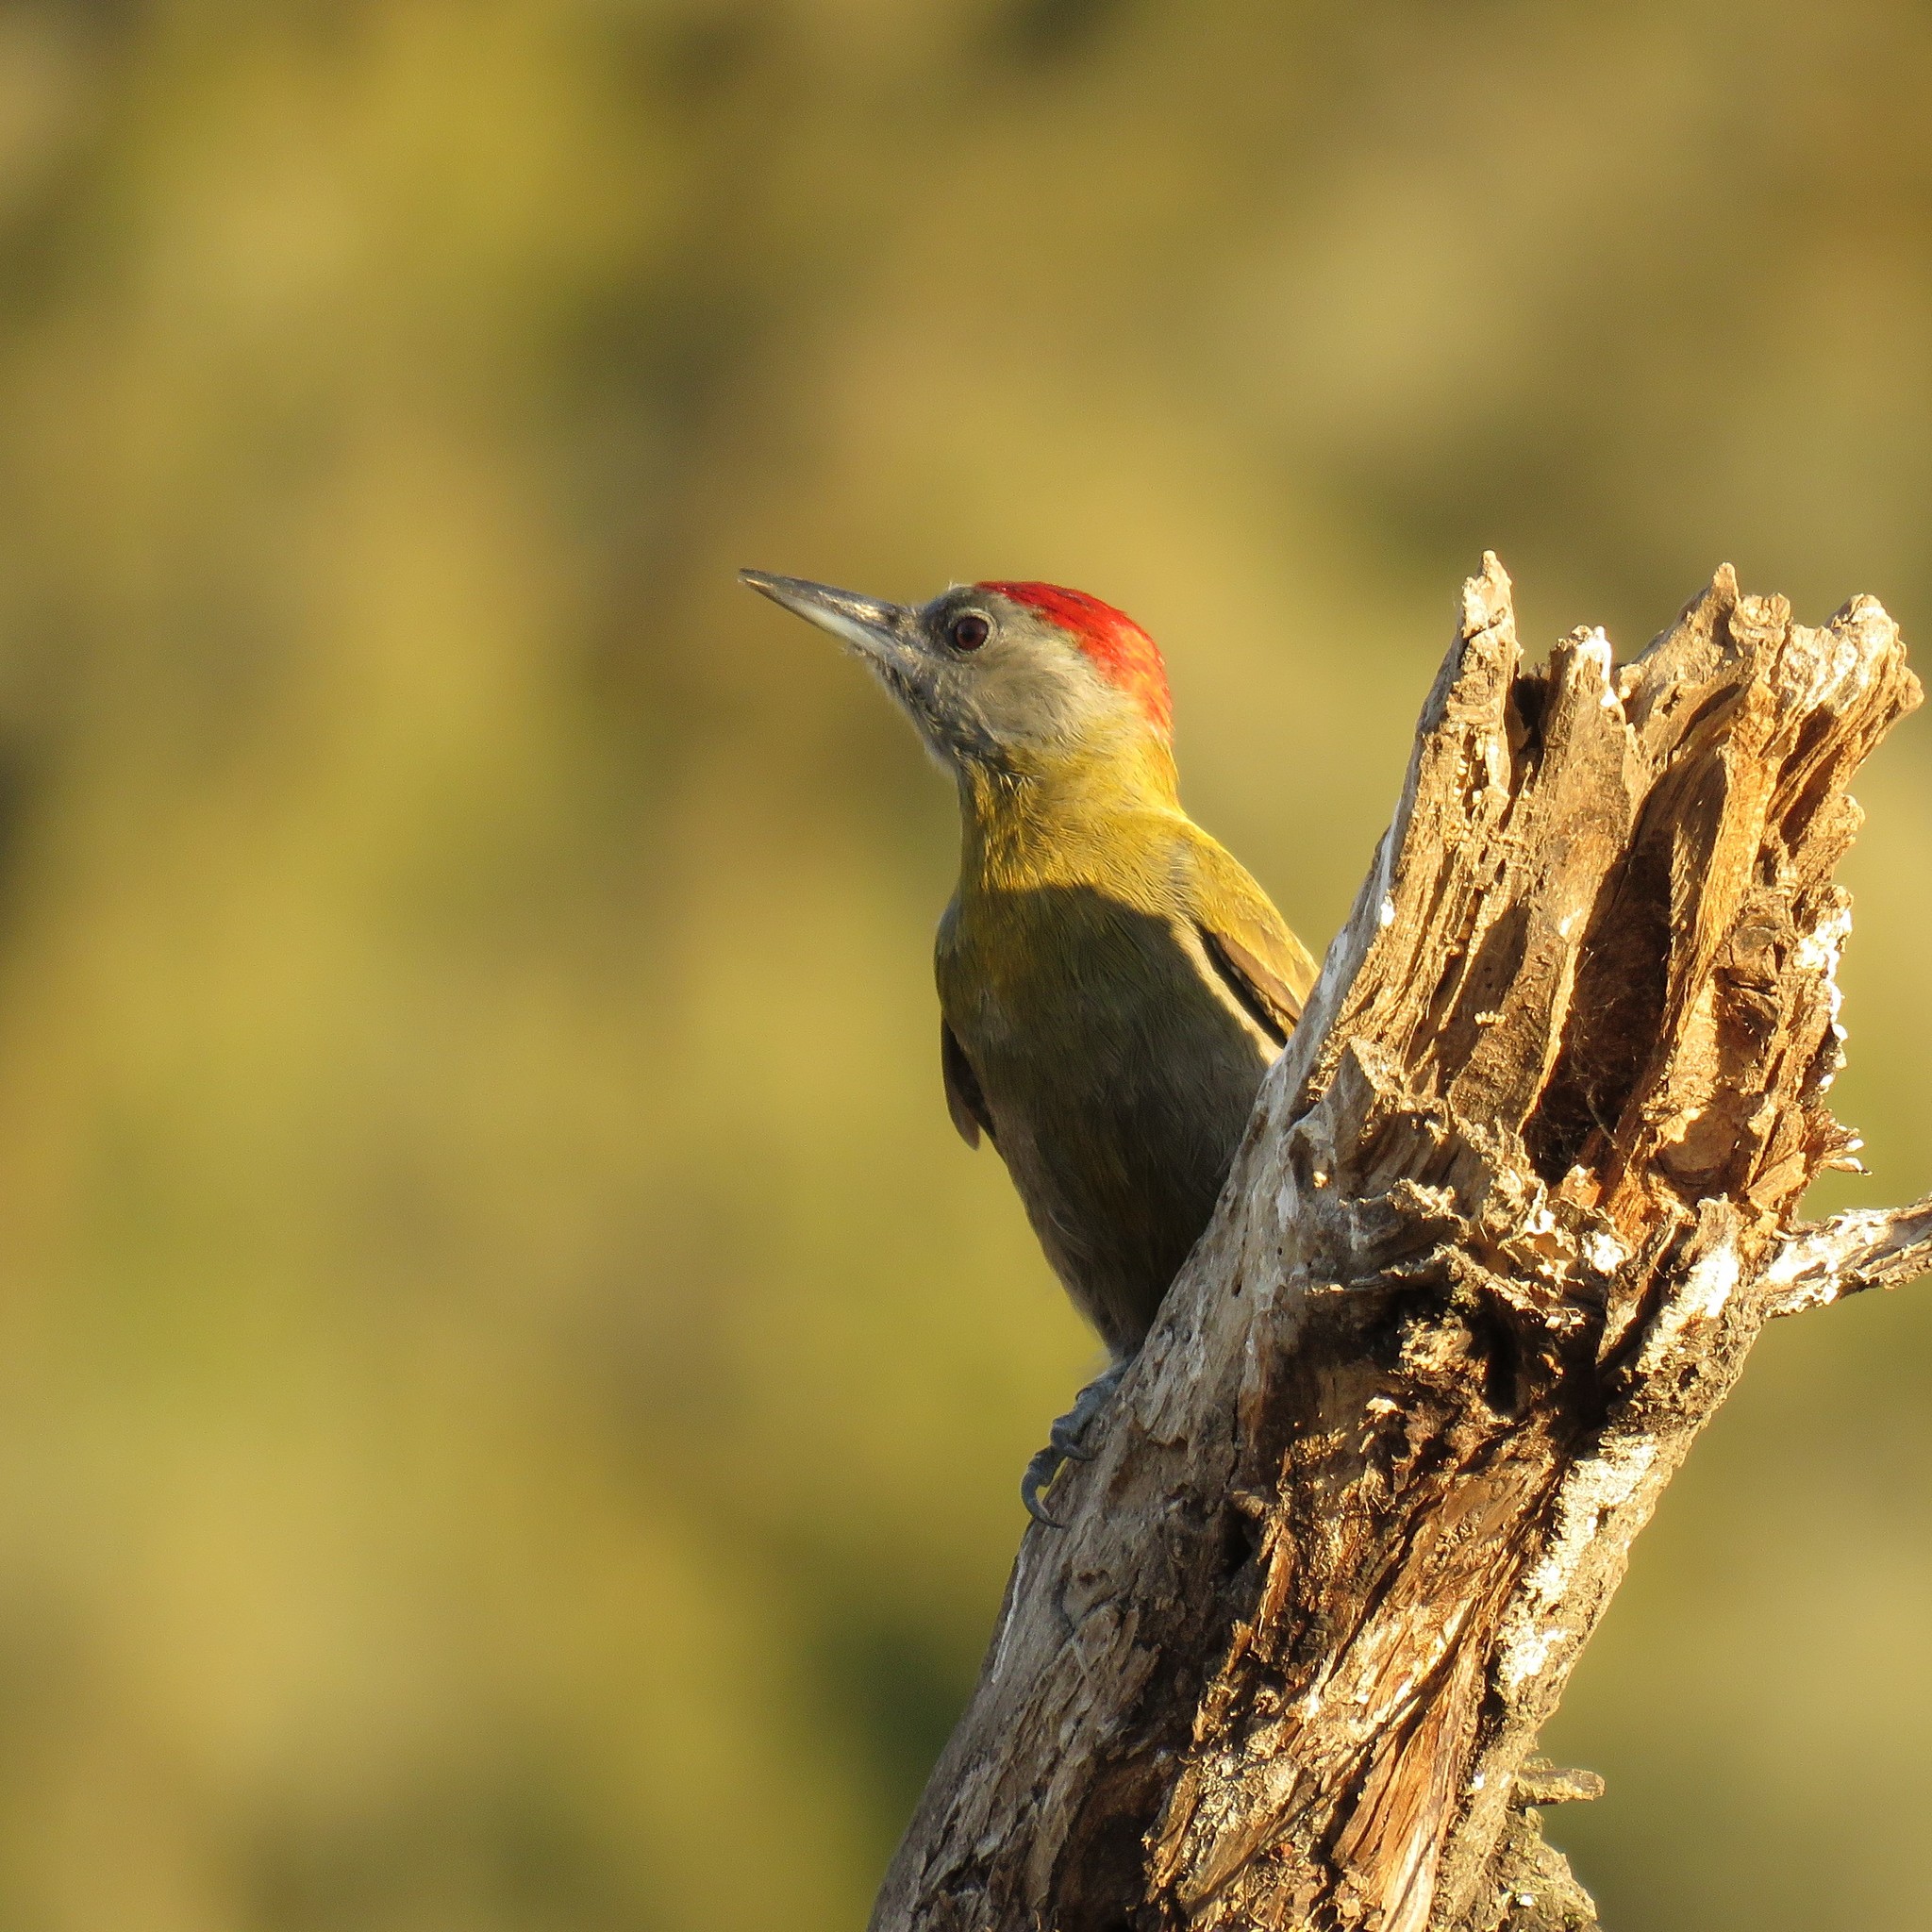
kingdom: Animalia
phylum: Chordata
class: Aves
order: Piciformes
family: Picidae
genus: Dendropicos
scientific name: Dendropicos griseocephalus
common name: Olive woodpecker
